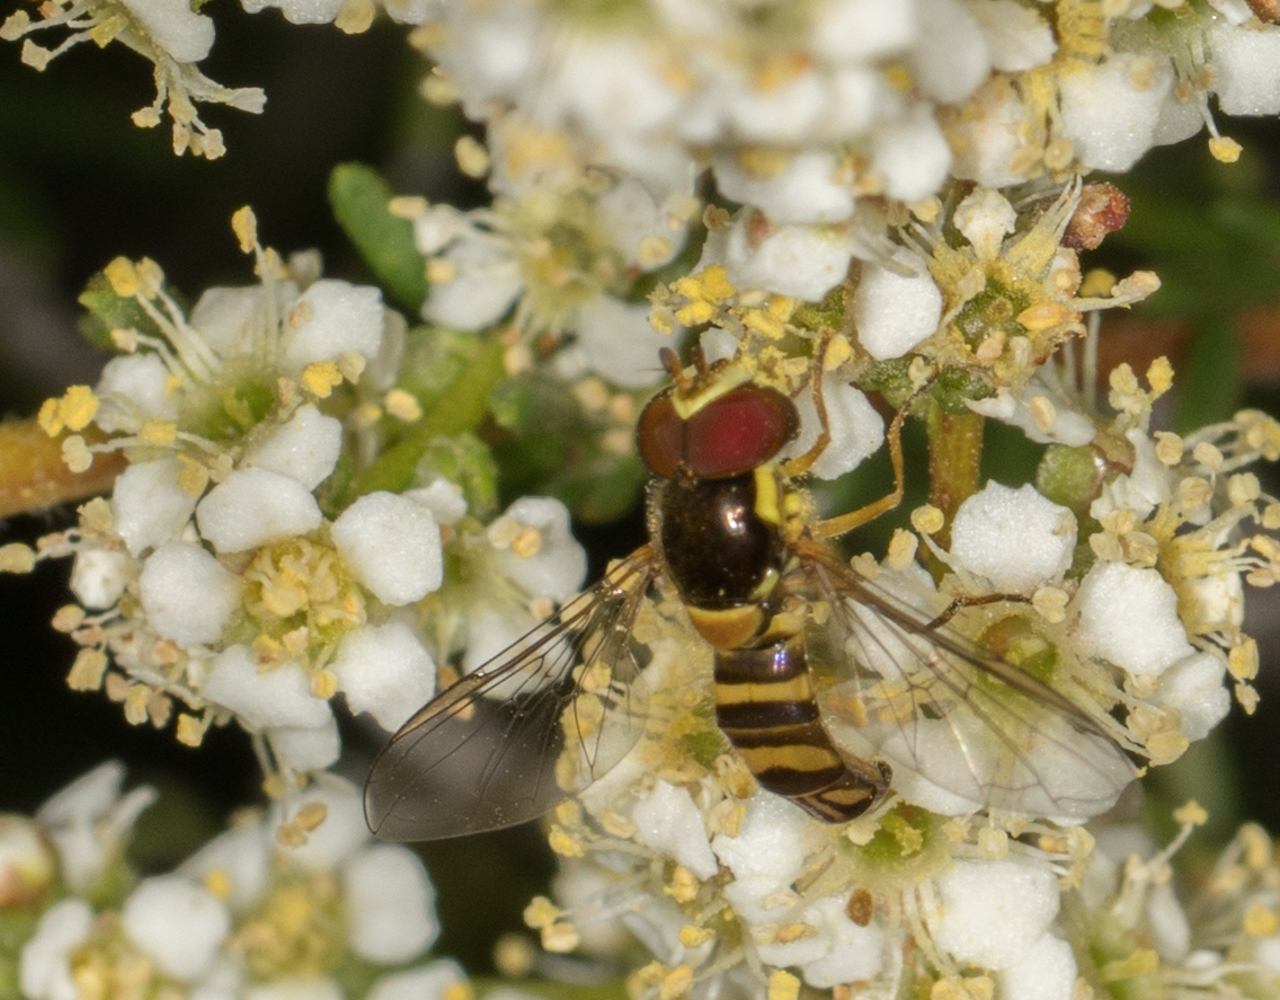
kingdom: Animalia
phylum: Arthropoda
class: Insecta
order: Diptera
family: Syrphidae
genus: Allograpta
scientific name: Allograpta obliqua
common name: Common oblique syrphid
